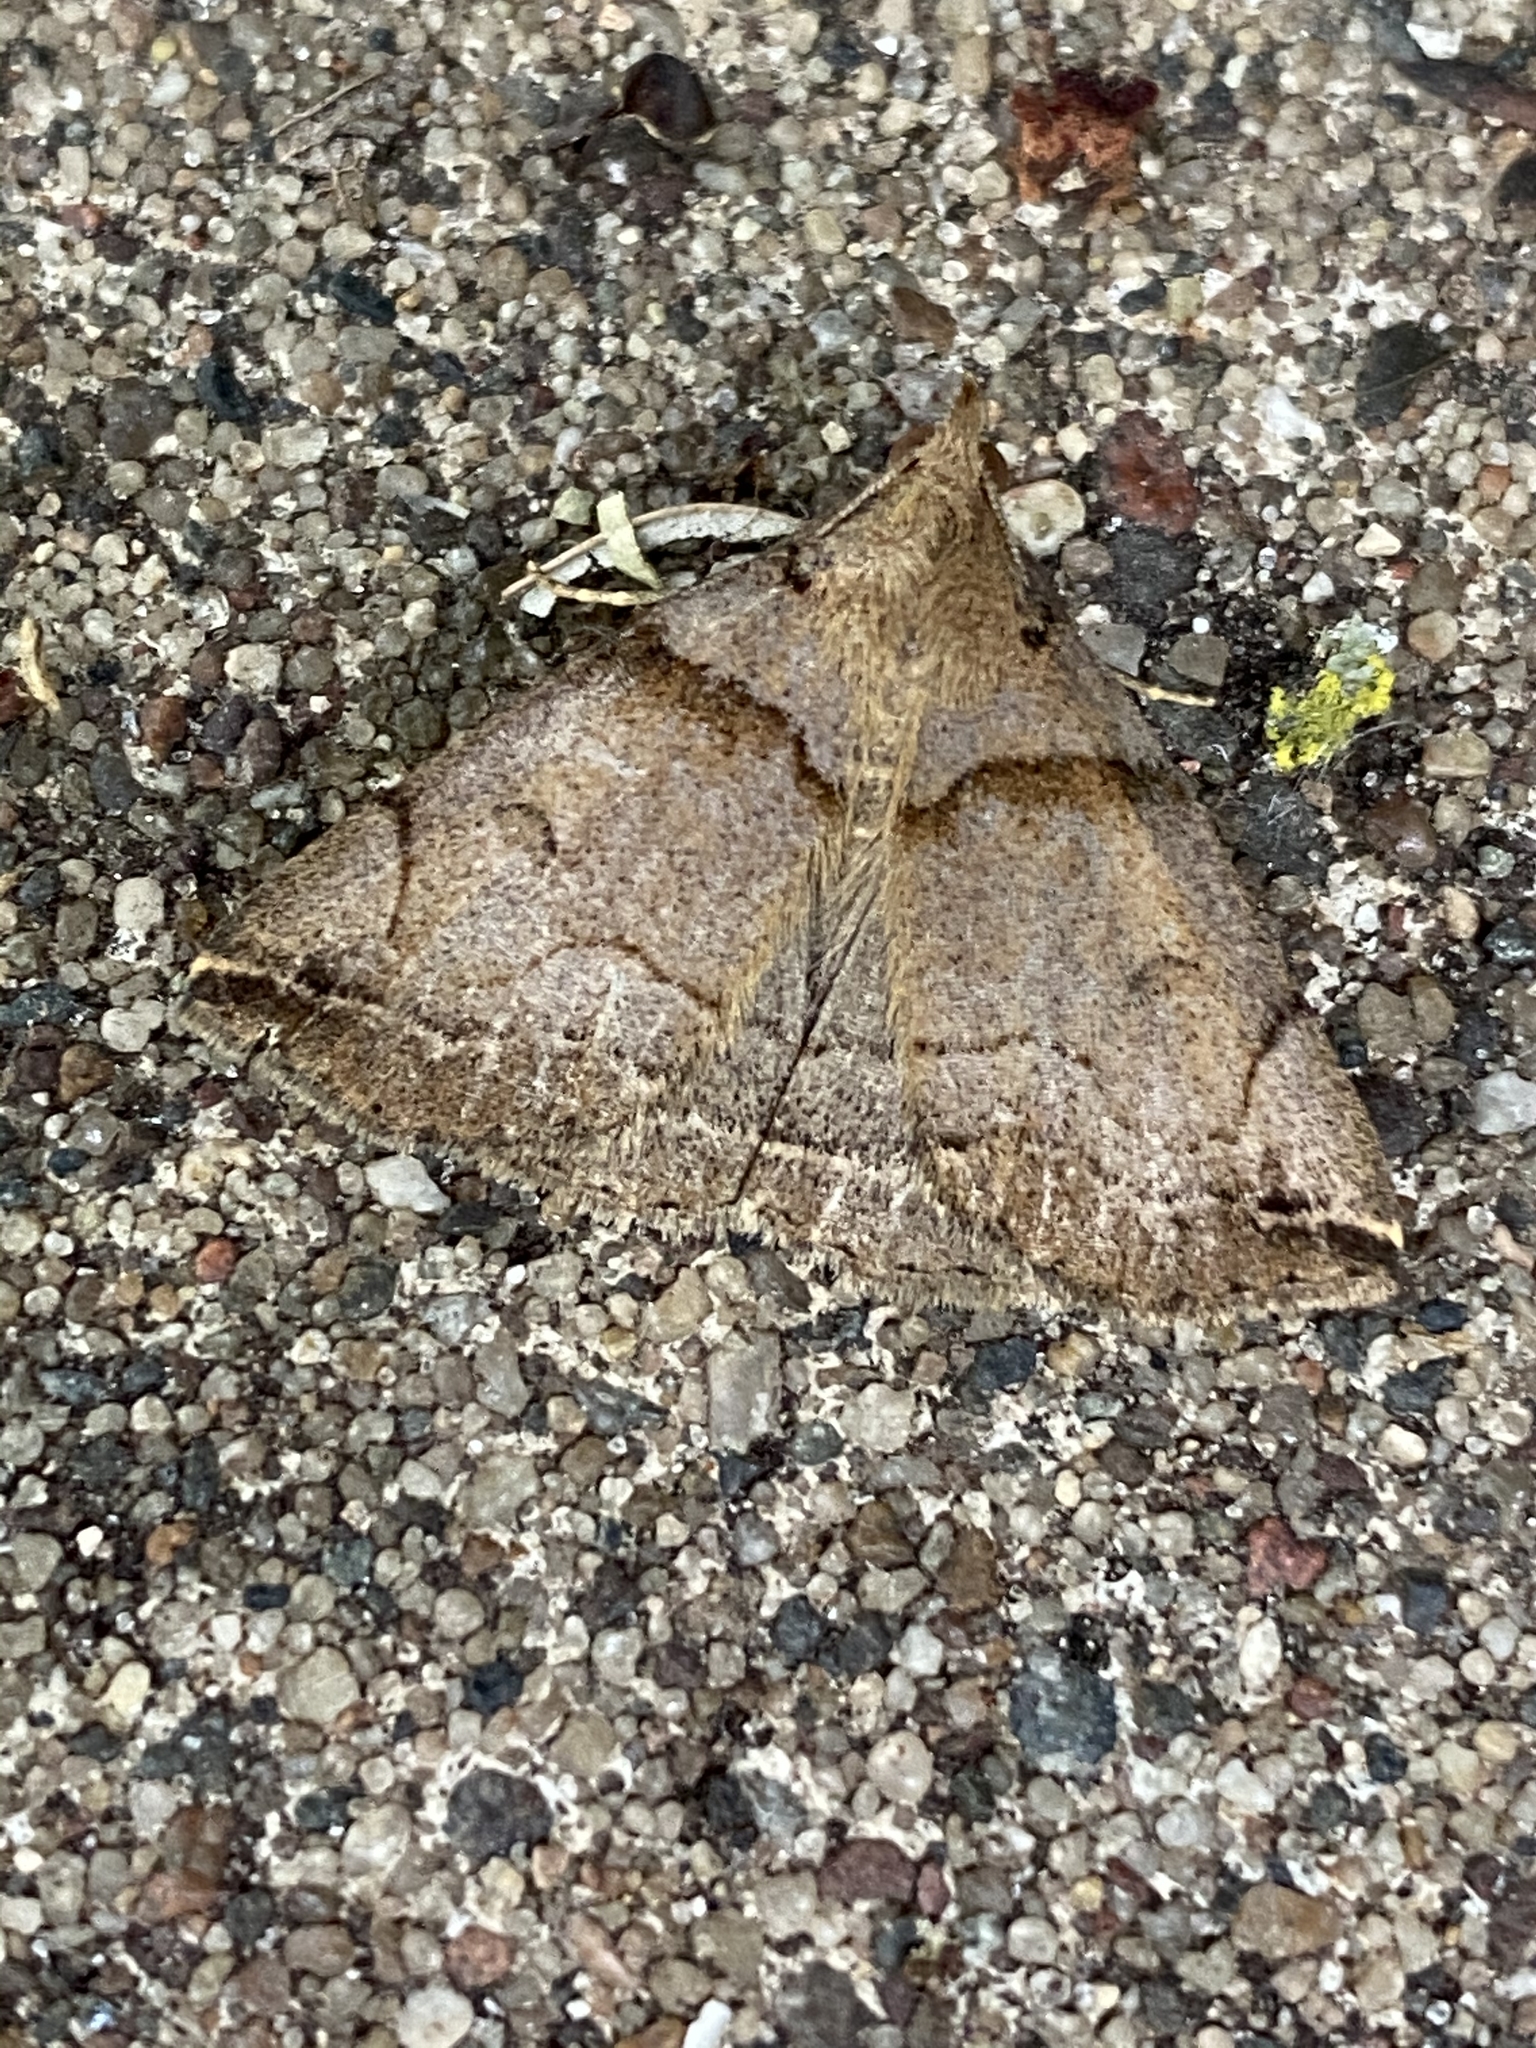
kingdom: Animalia
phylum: Arthropoda
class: Insecta
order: Lepidoptera
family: Erebidae
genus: Zanclognatha
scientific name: Zanclognatha laevigata
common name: Variable fan-foot
